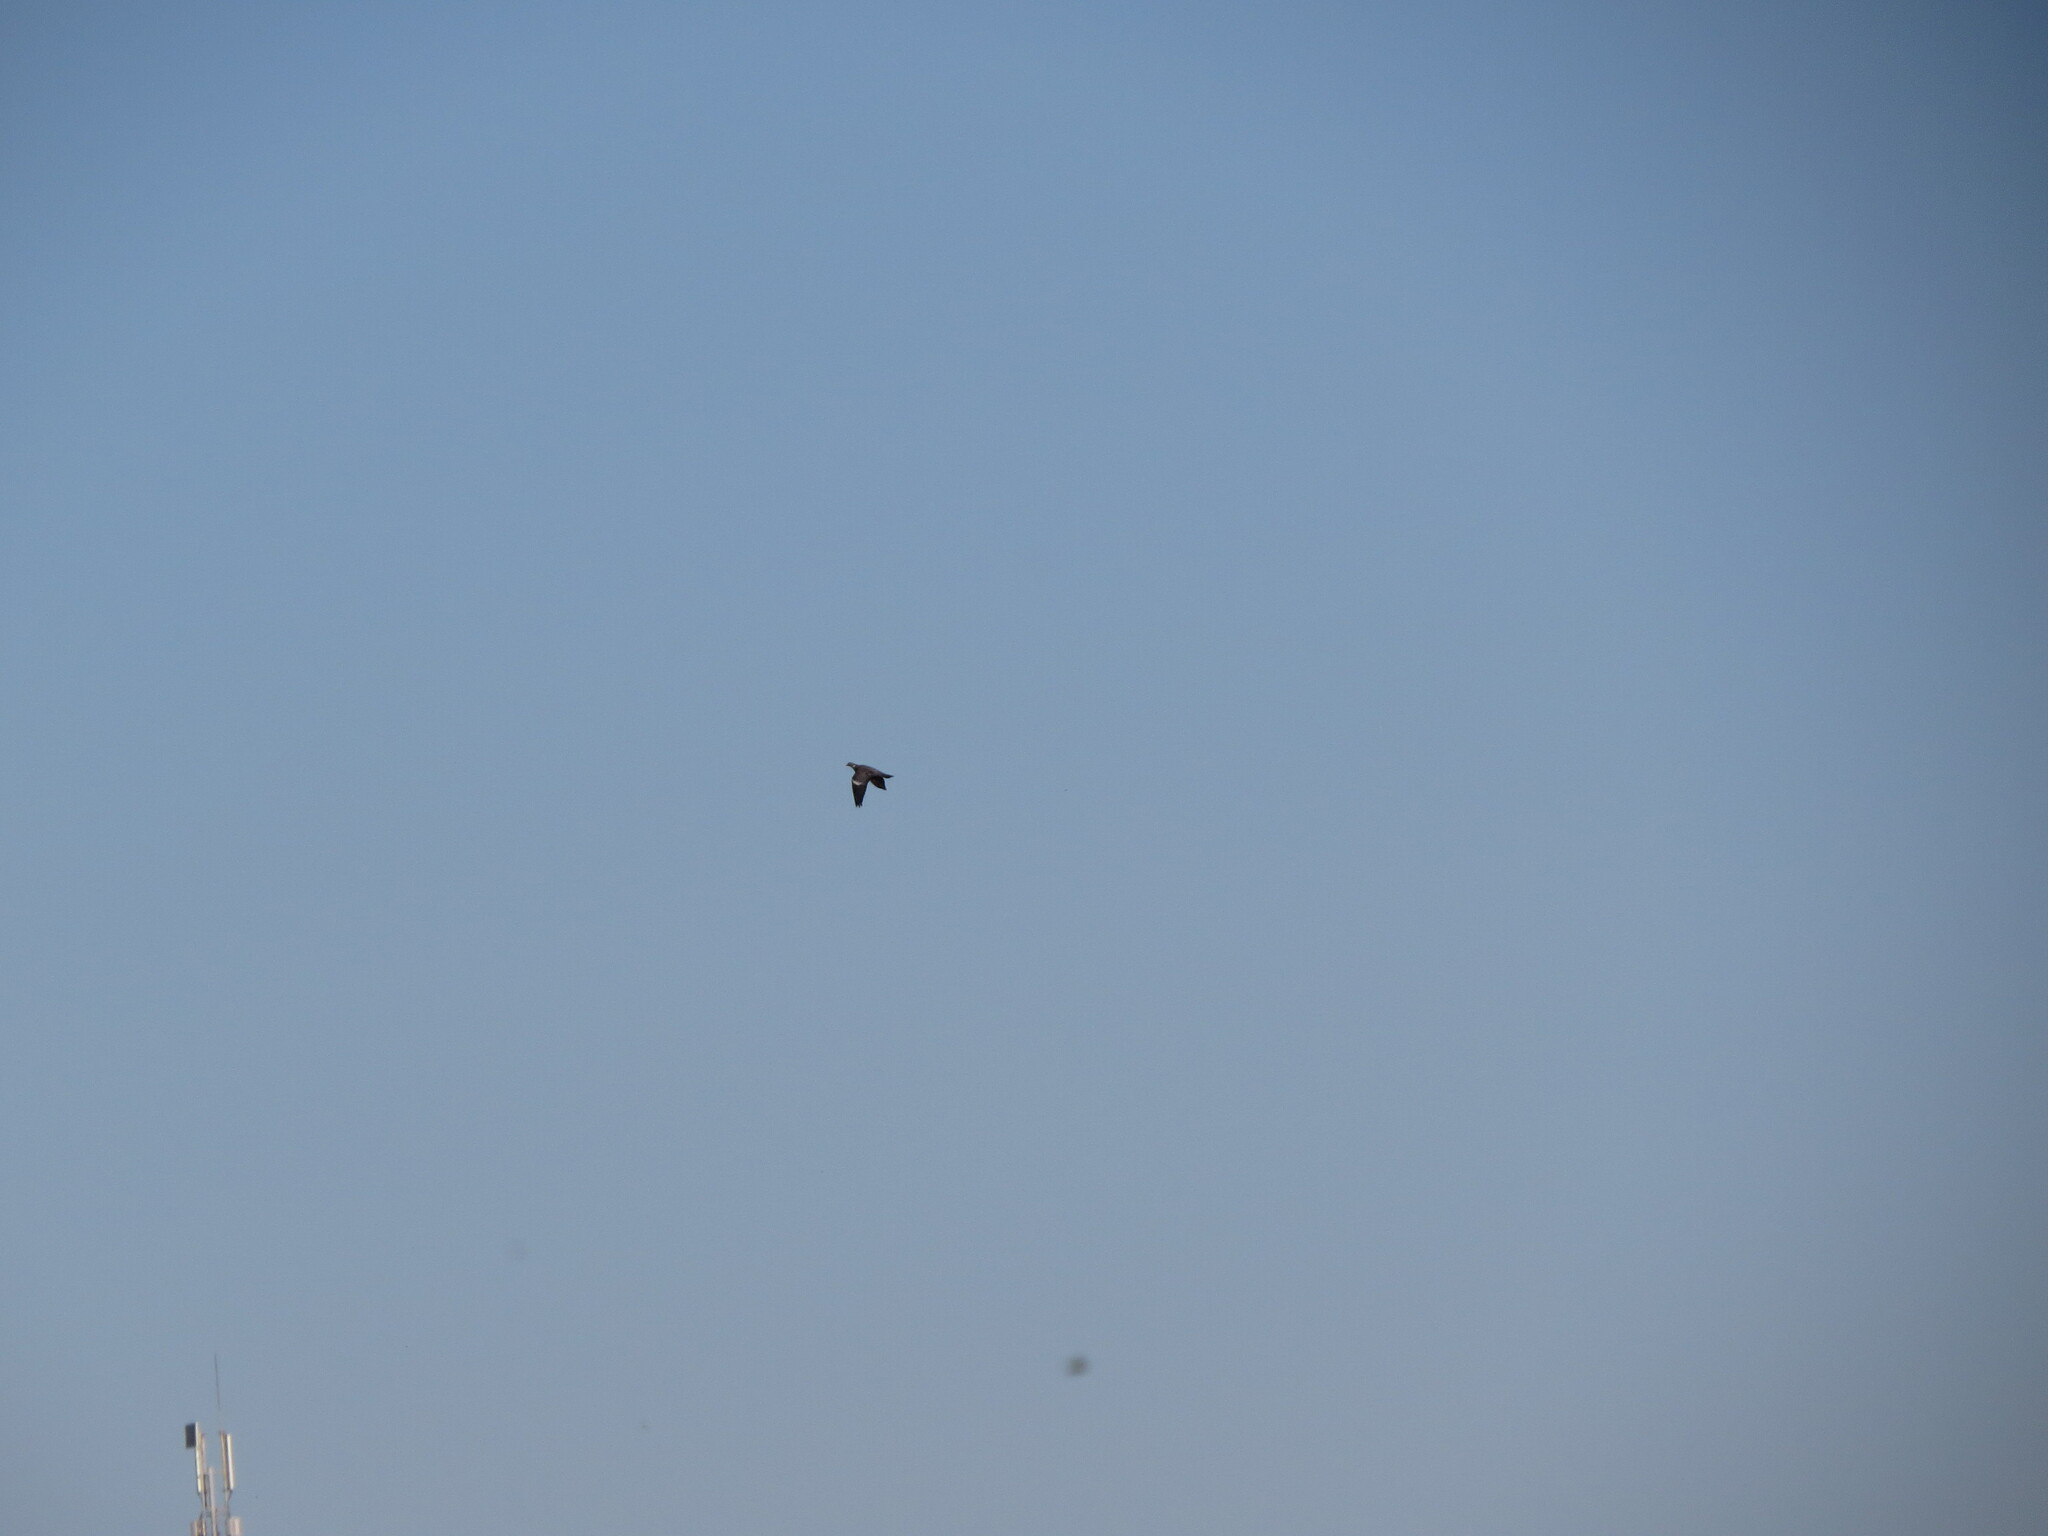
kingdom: Animalia
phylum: Chordata
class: Aves
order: Columbiformes
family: Columbidae
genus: Columba
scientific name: Columba palumbus
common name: Common wood pigeon
